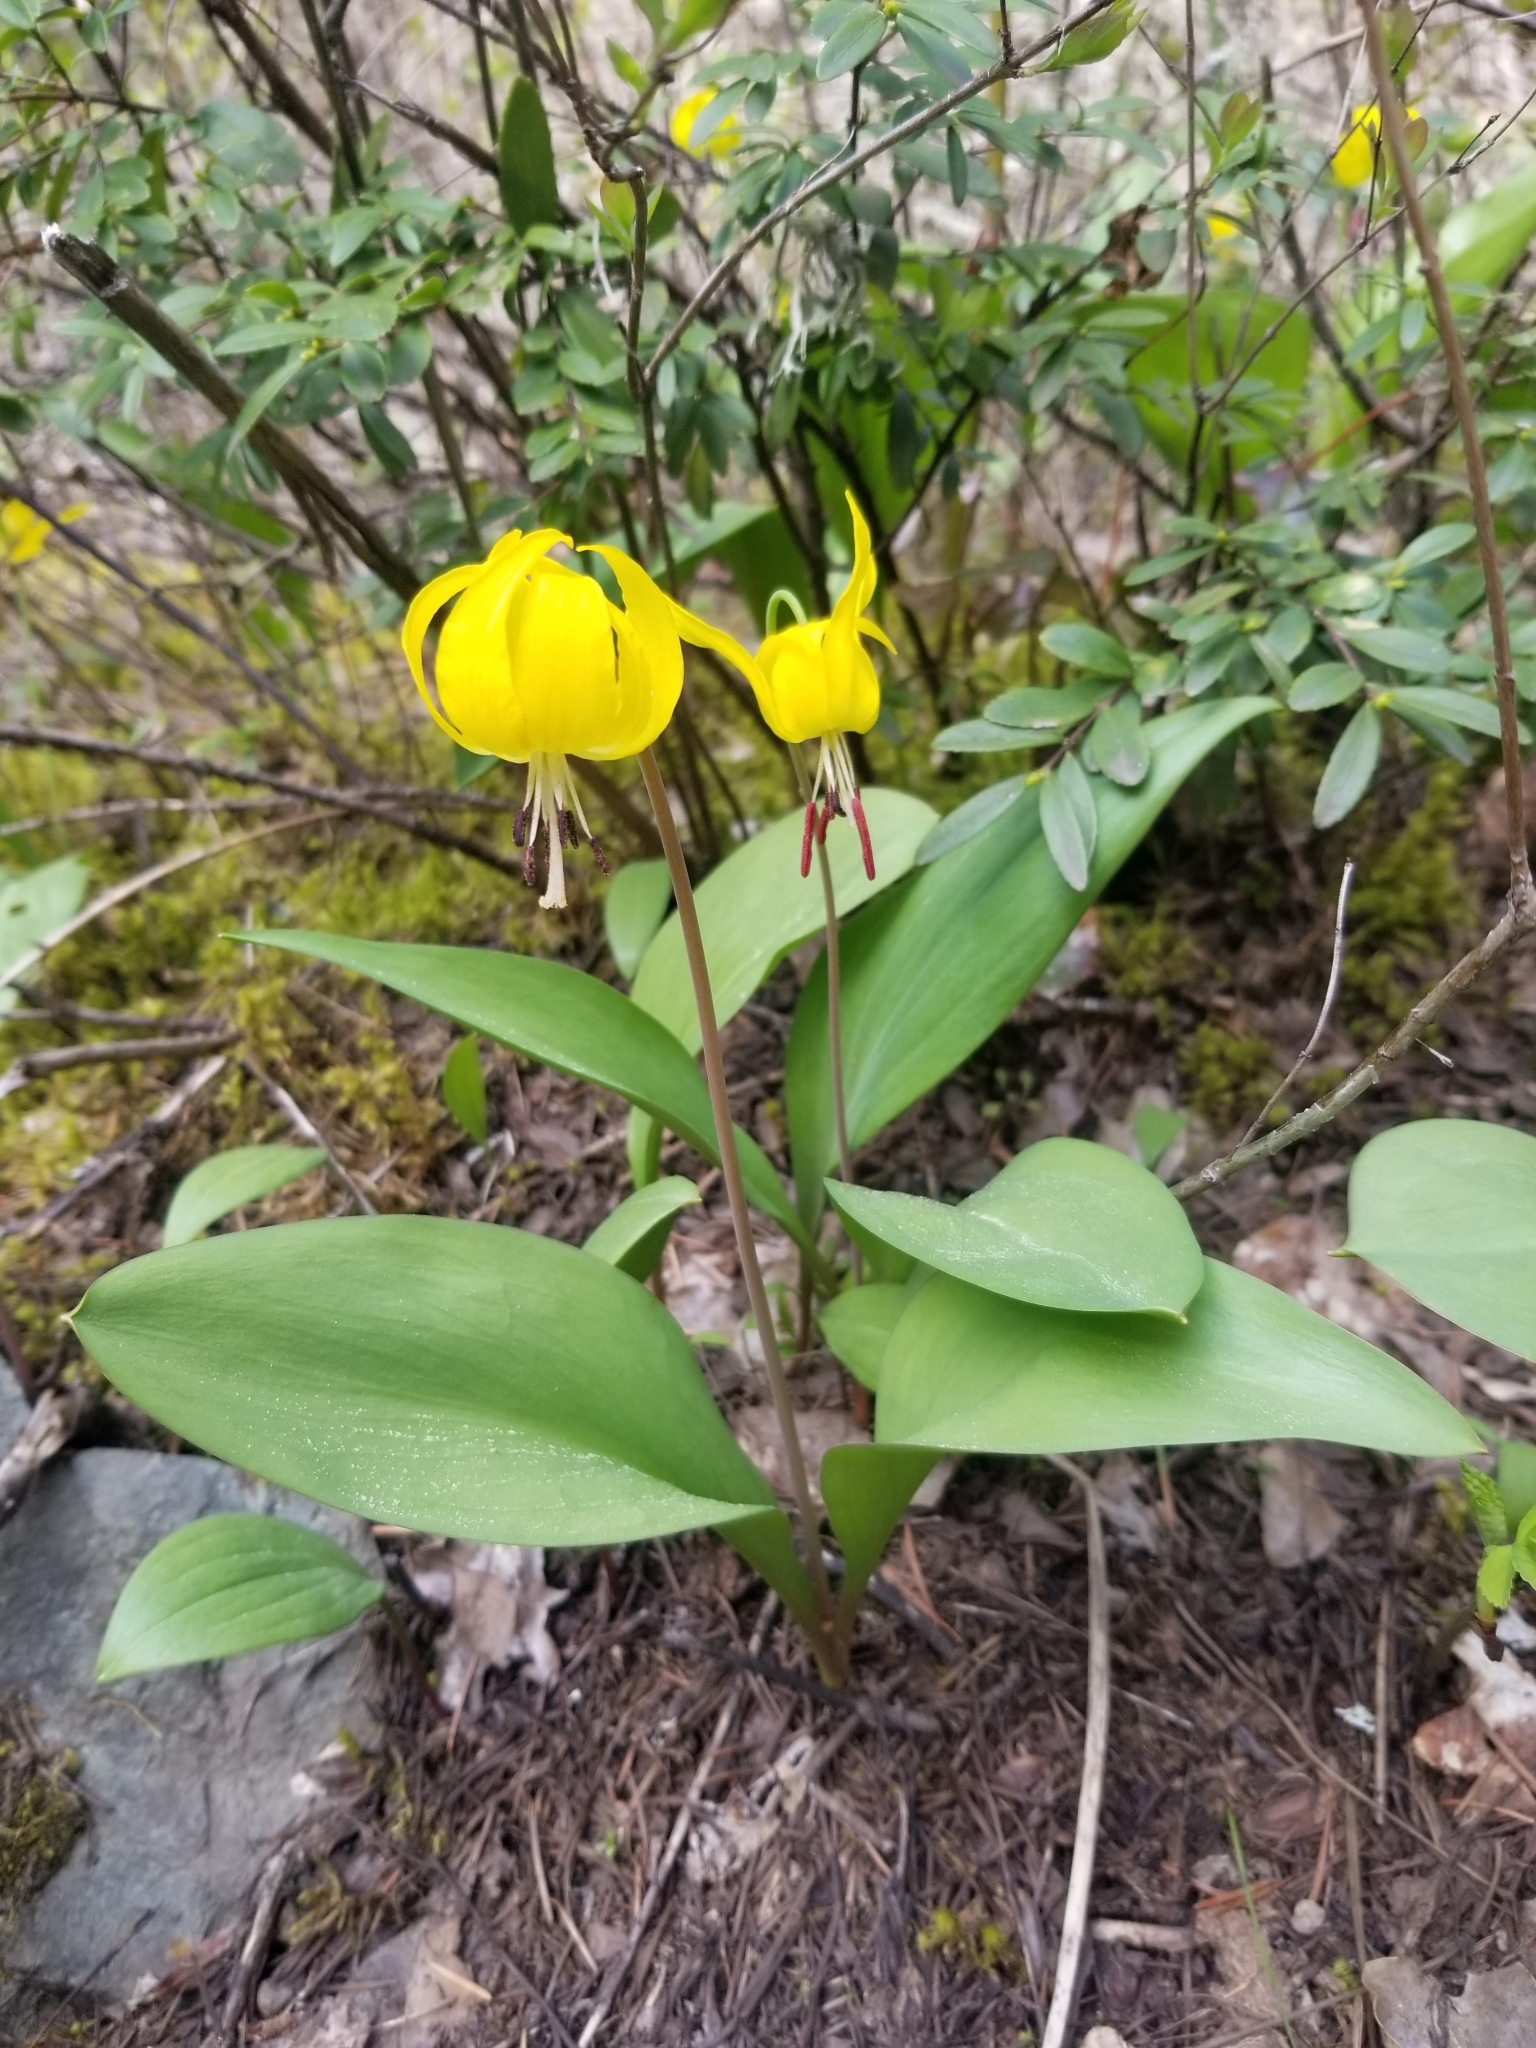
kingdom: Plantae
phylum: Tracheophyta
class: Liliopsida
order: Liliales
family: Liliaceae
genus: Erythronium
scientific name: Erythronium grandiflorum
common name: Avalanche-lily
